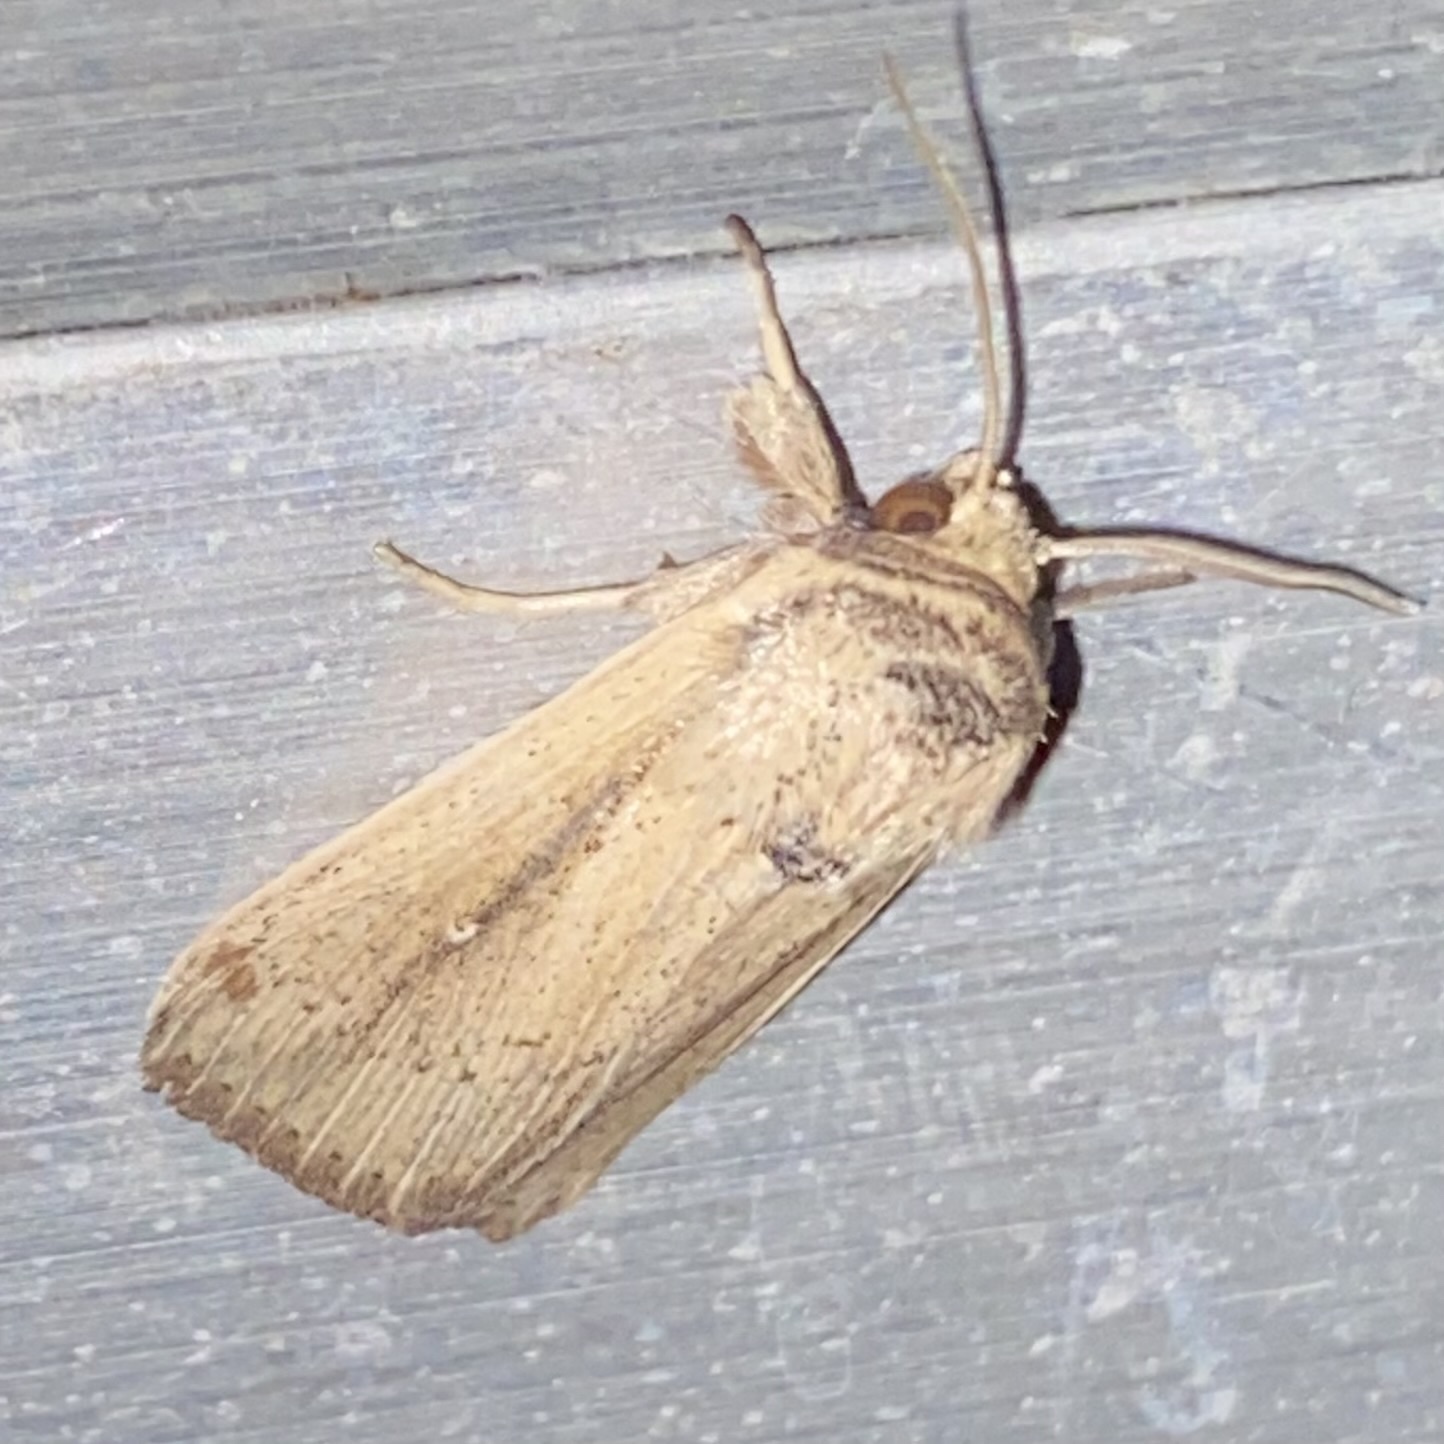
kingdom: Animalia
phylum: Arthropoda
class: Insecta
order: Lepidoptera
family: Noctuidae
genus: Leucania
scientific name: Leucania incognita
